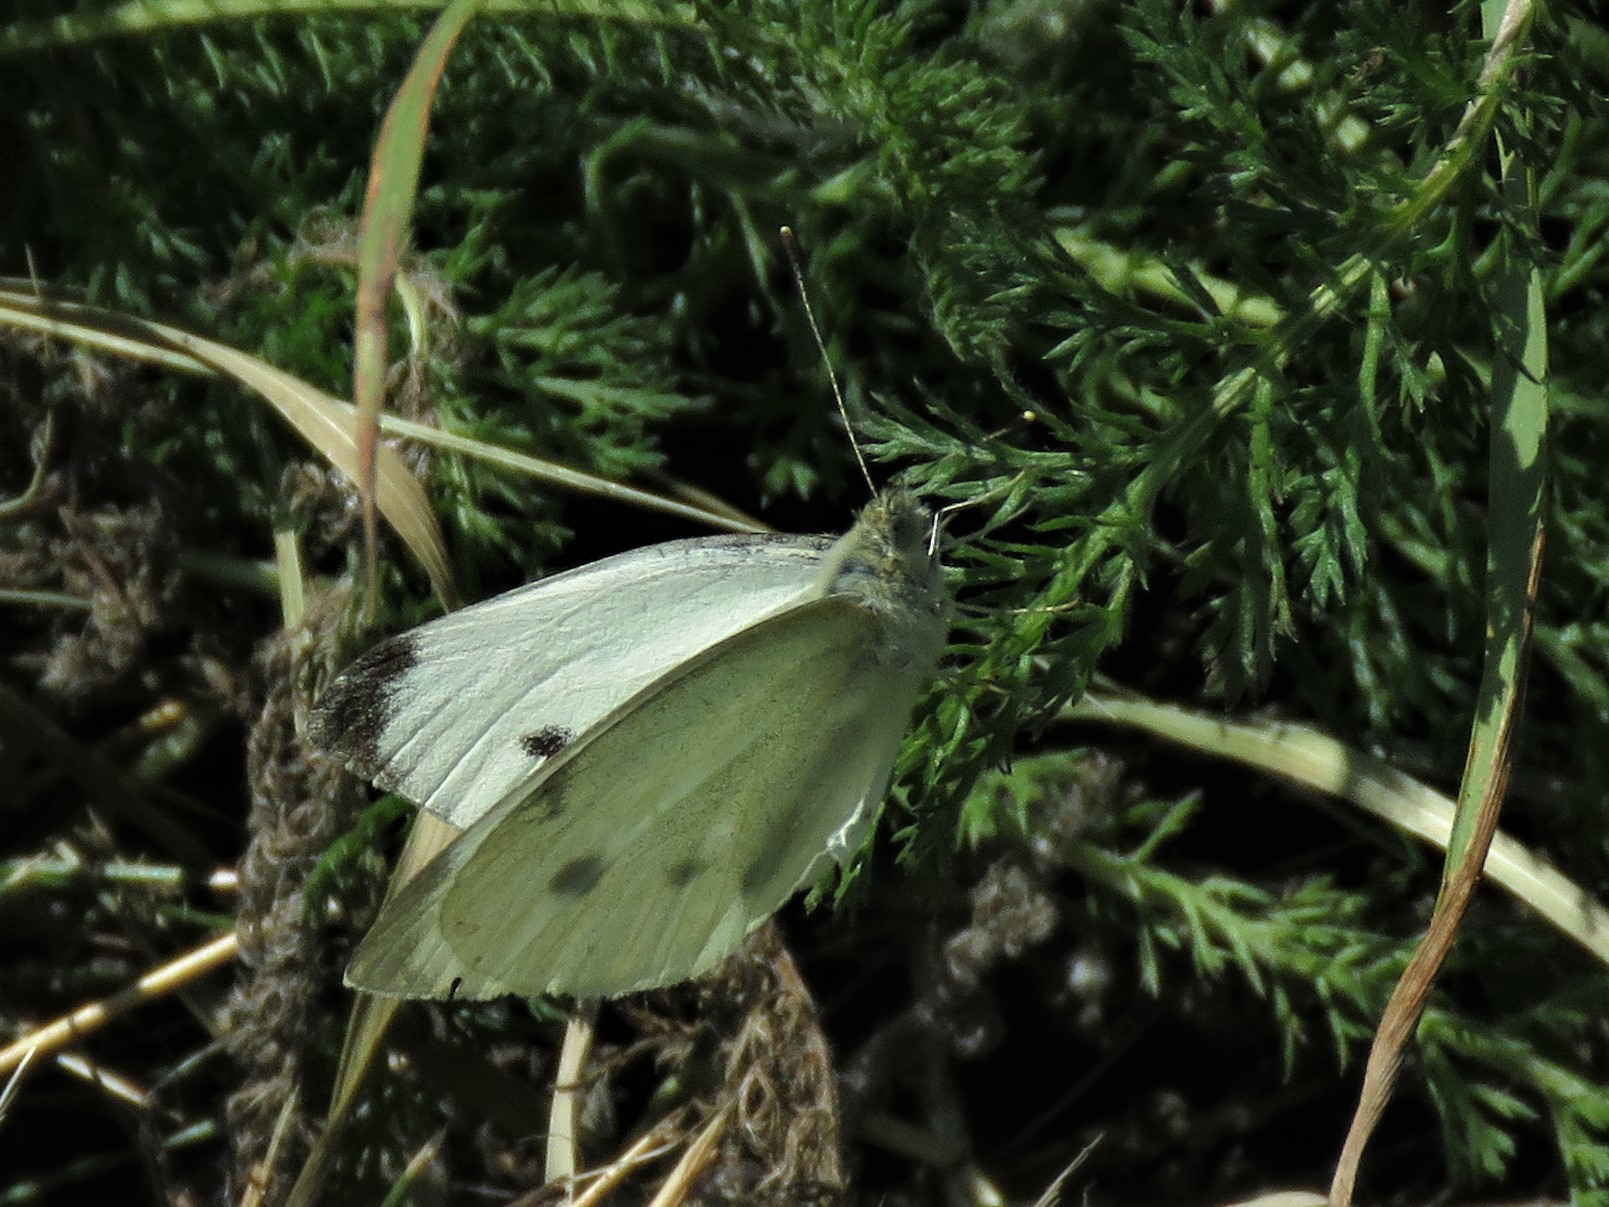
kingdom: Animalia
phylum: Arthropoda
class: Insecta
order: Lepidoptera
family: Pieridae
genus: Pieris
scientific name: Pieris rapae
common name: Small white
